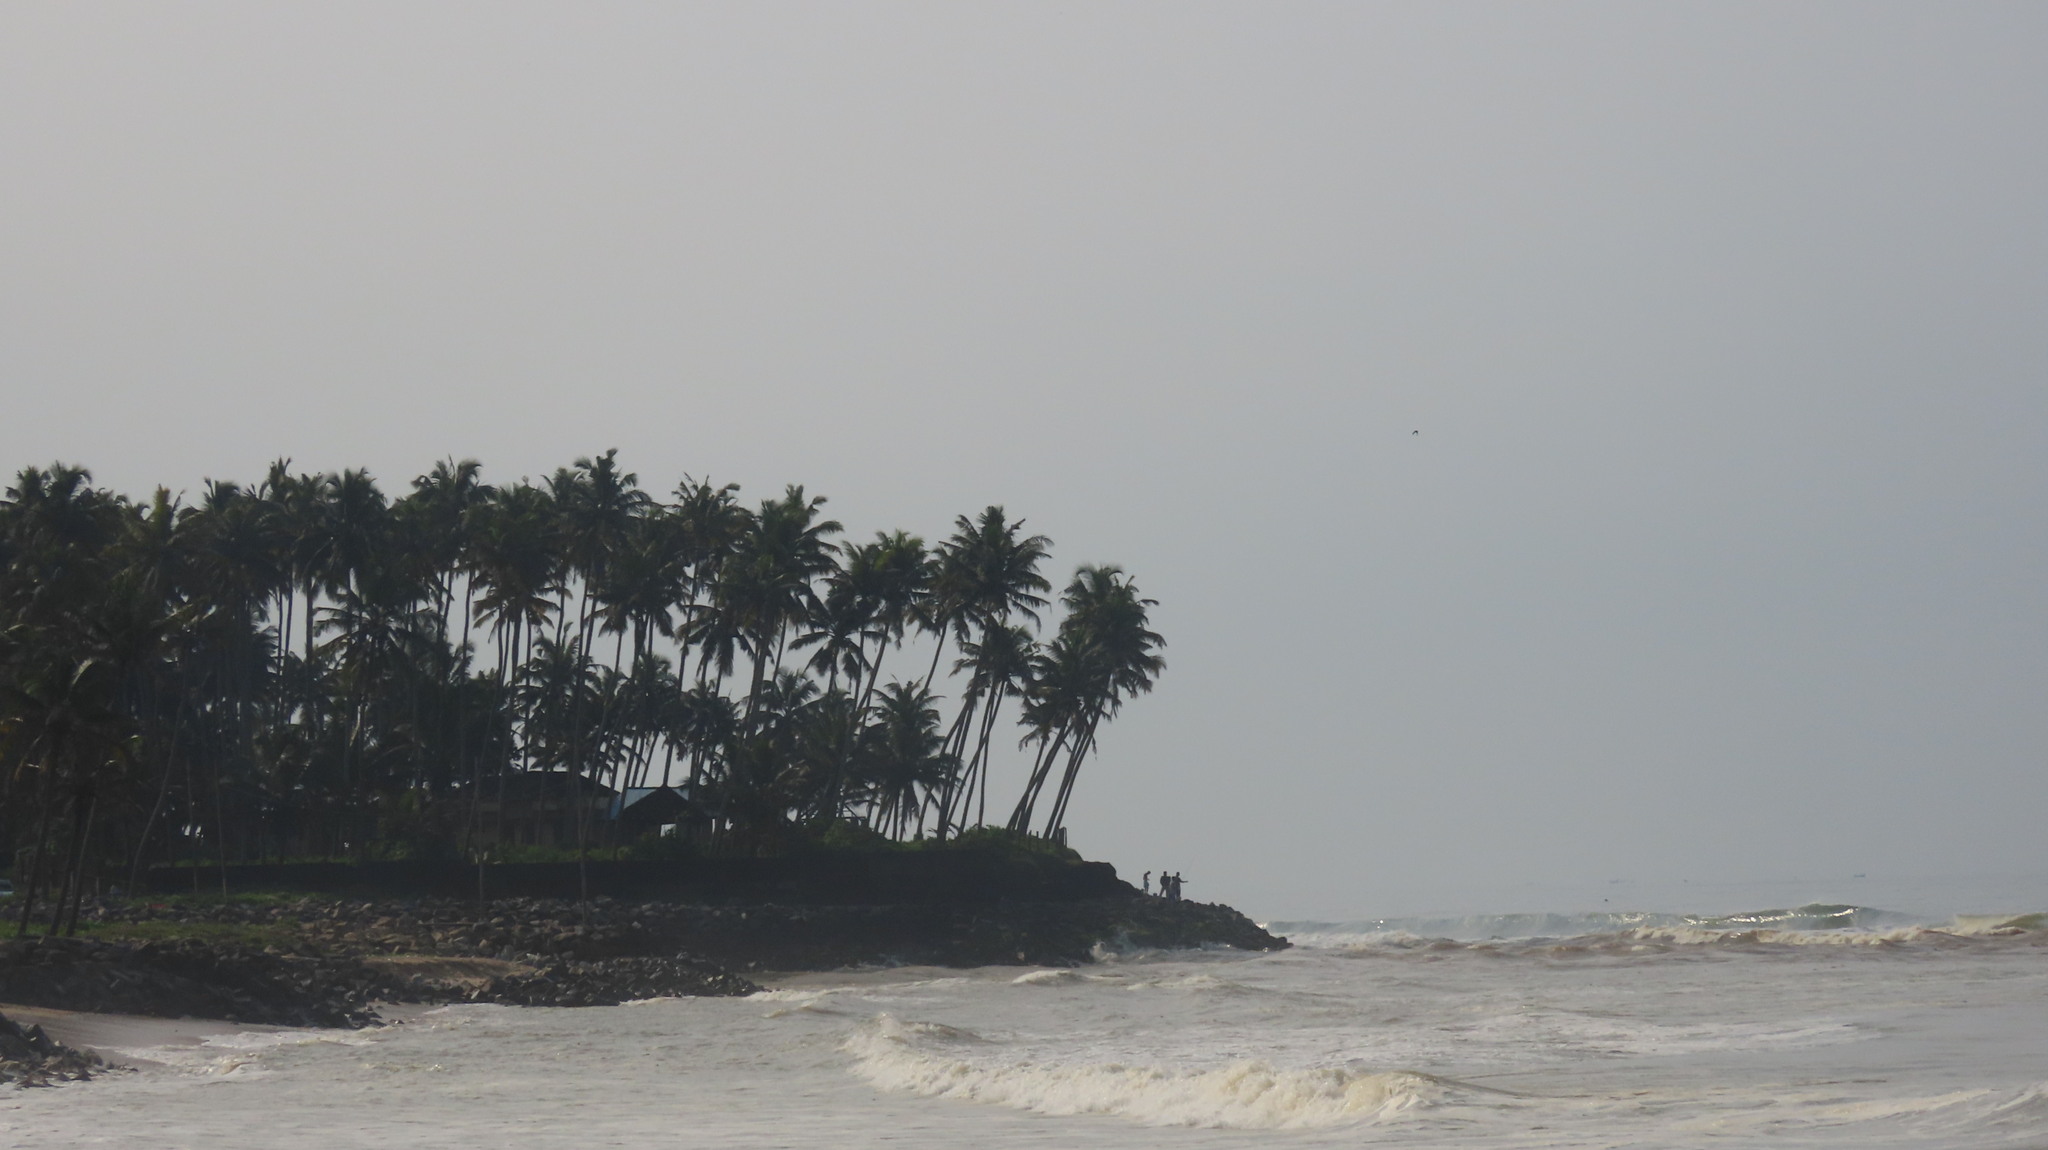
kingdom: Plantae
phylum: Tracheophyta
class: Liliopsida
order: Arecales
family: Arecaceae
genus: Cocos
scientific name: Cocos nucifera
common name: Coconut palm
